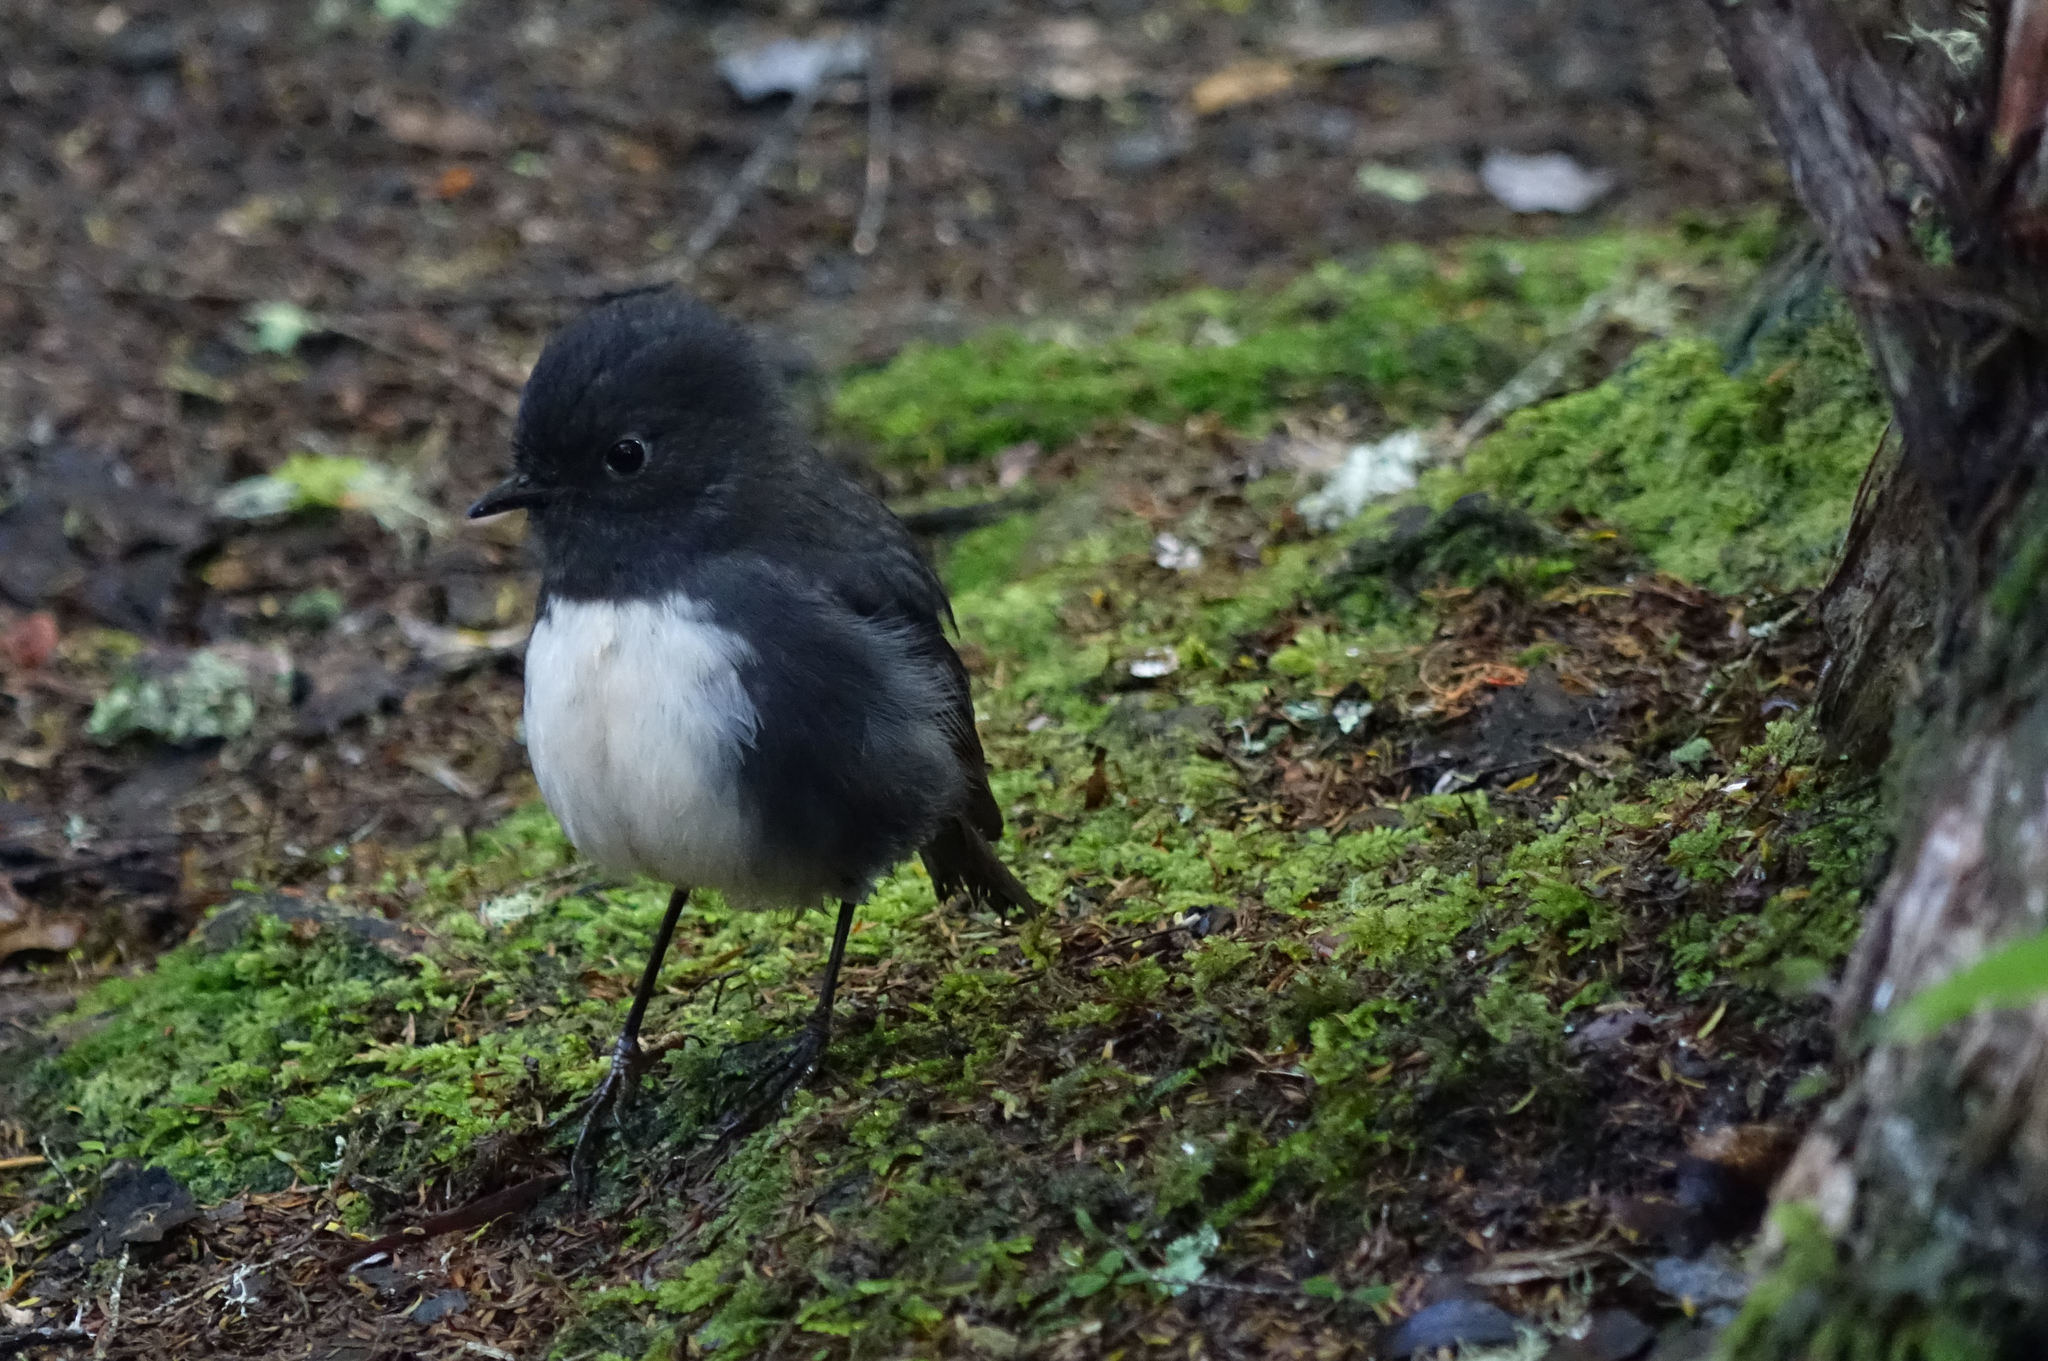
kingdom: Animalia
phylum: Chordata
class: Aves
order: Passeriformes
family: Petroicidae
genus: Petroica
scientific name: Petroica australis
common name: New zealand robin
